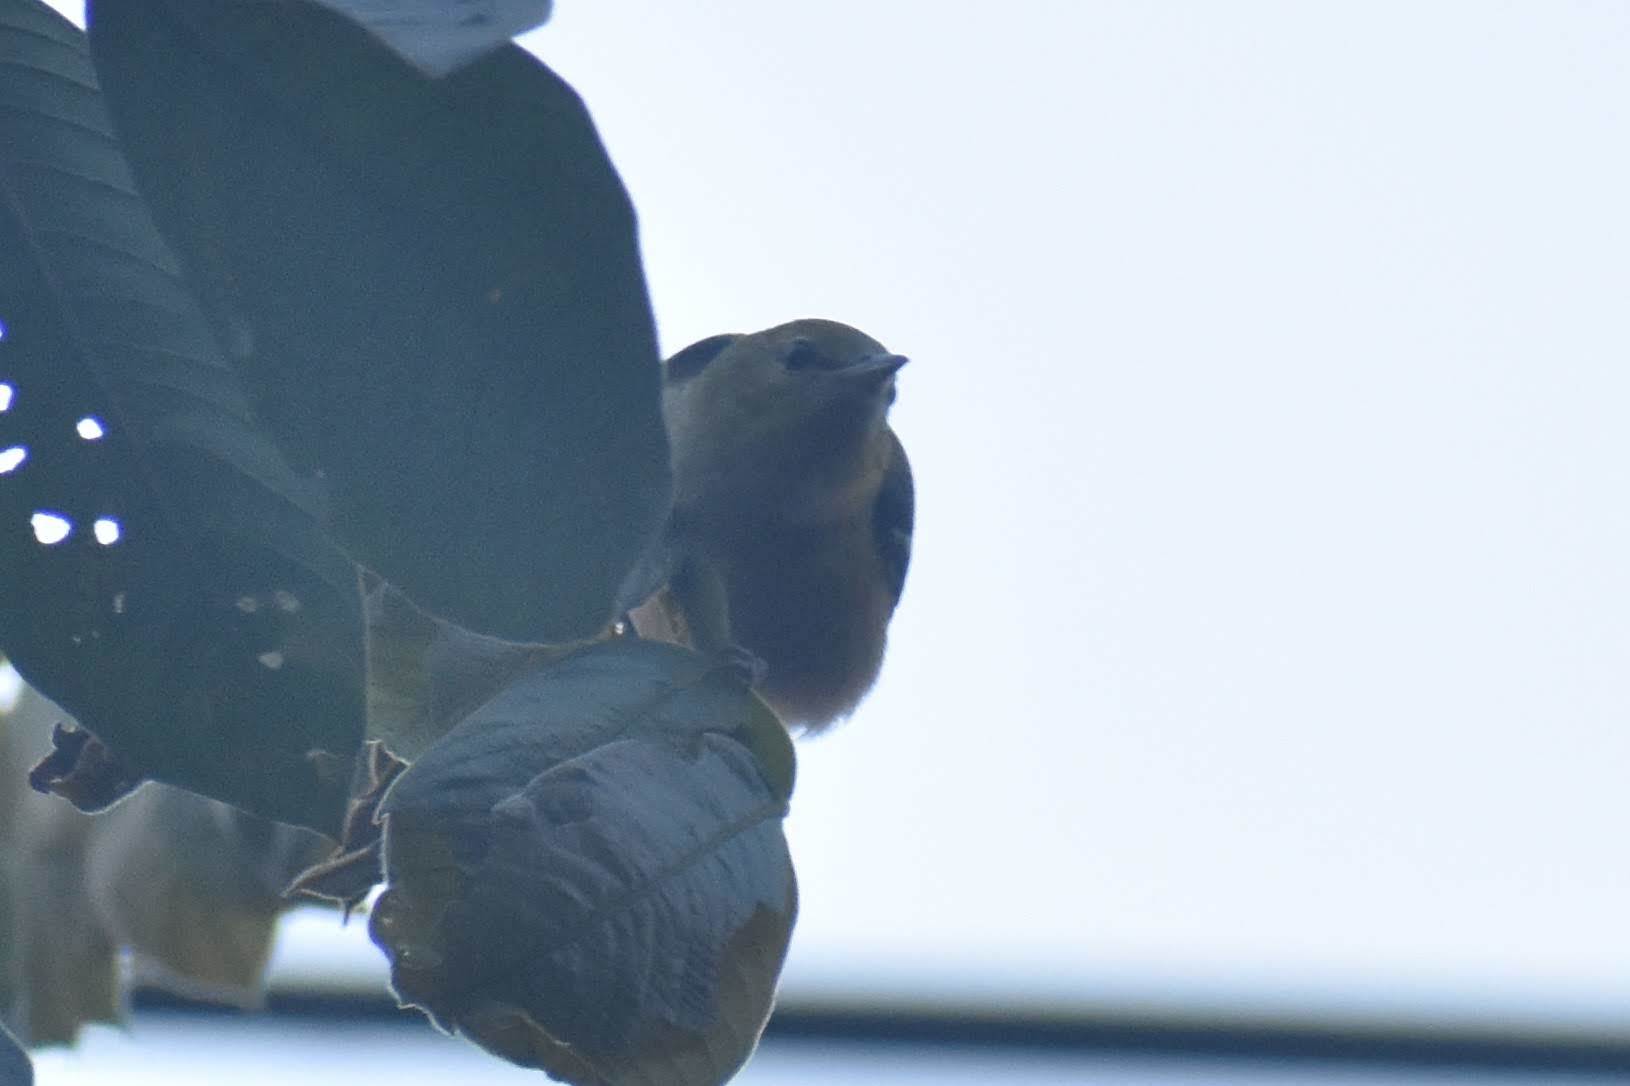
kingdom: Animalia
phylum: Chordata
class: Aves
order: Passeriformes
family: Parulidae
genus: Setophaga
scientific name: Setophaga castanea
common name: Bay-breasted warbler
